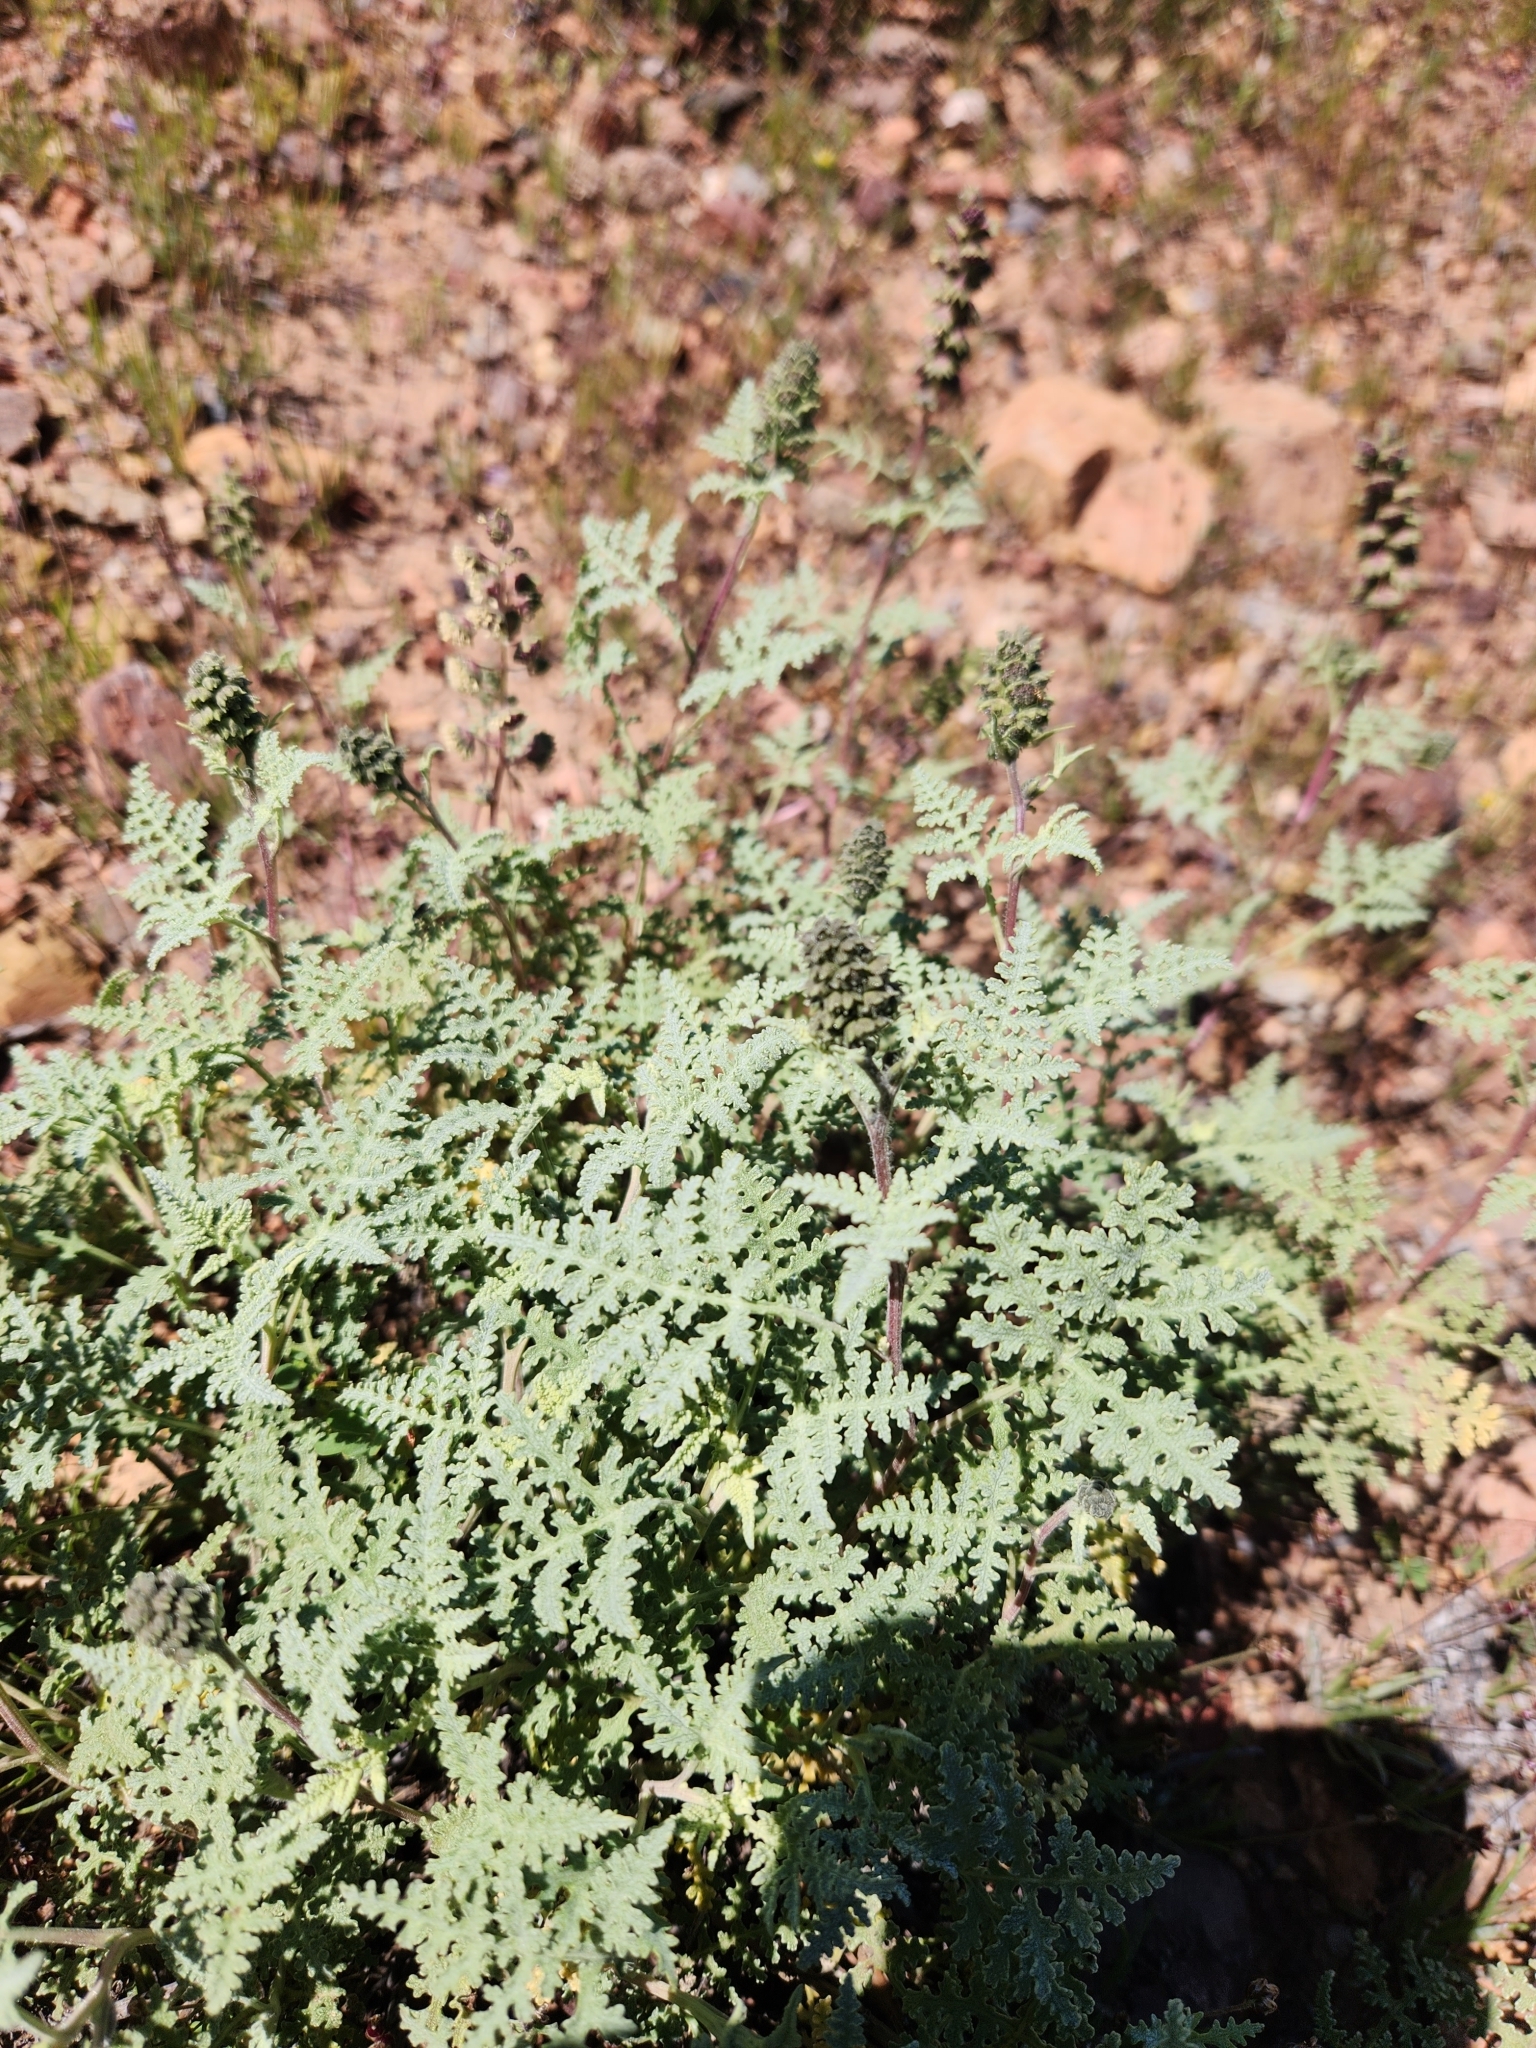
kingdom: Plantae
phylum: Tracheophyta
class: Magnoliopsida
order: Asterales
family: Asteraceae
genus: Ambrosia
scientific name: Ambrosia chenopodiifolia
